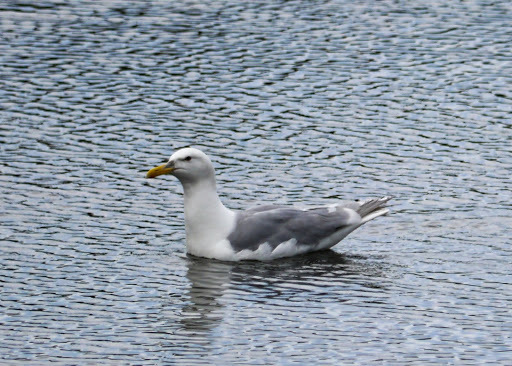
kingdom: Animalia
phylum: Chordata
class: Aves
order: Charadriiformes
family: Laridae
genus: Larus
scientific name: Larus glaucescens
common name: Glaucous-winged gull
